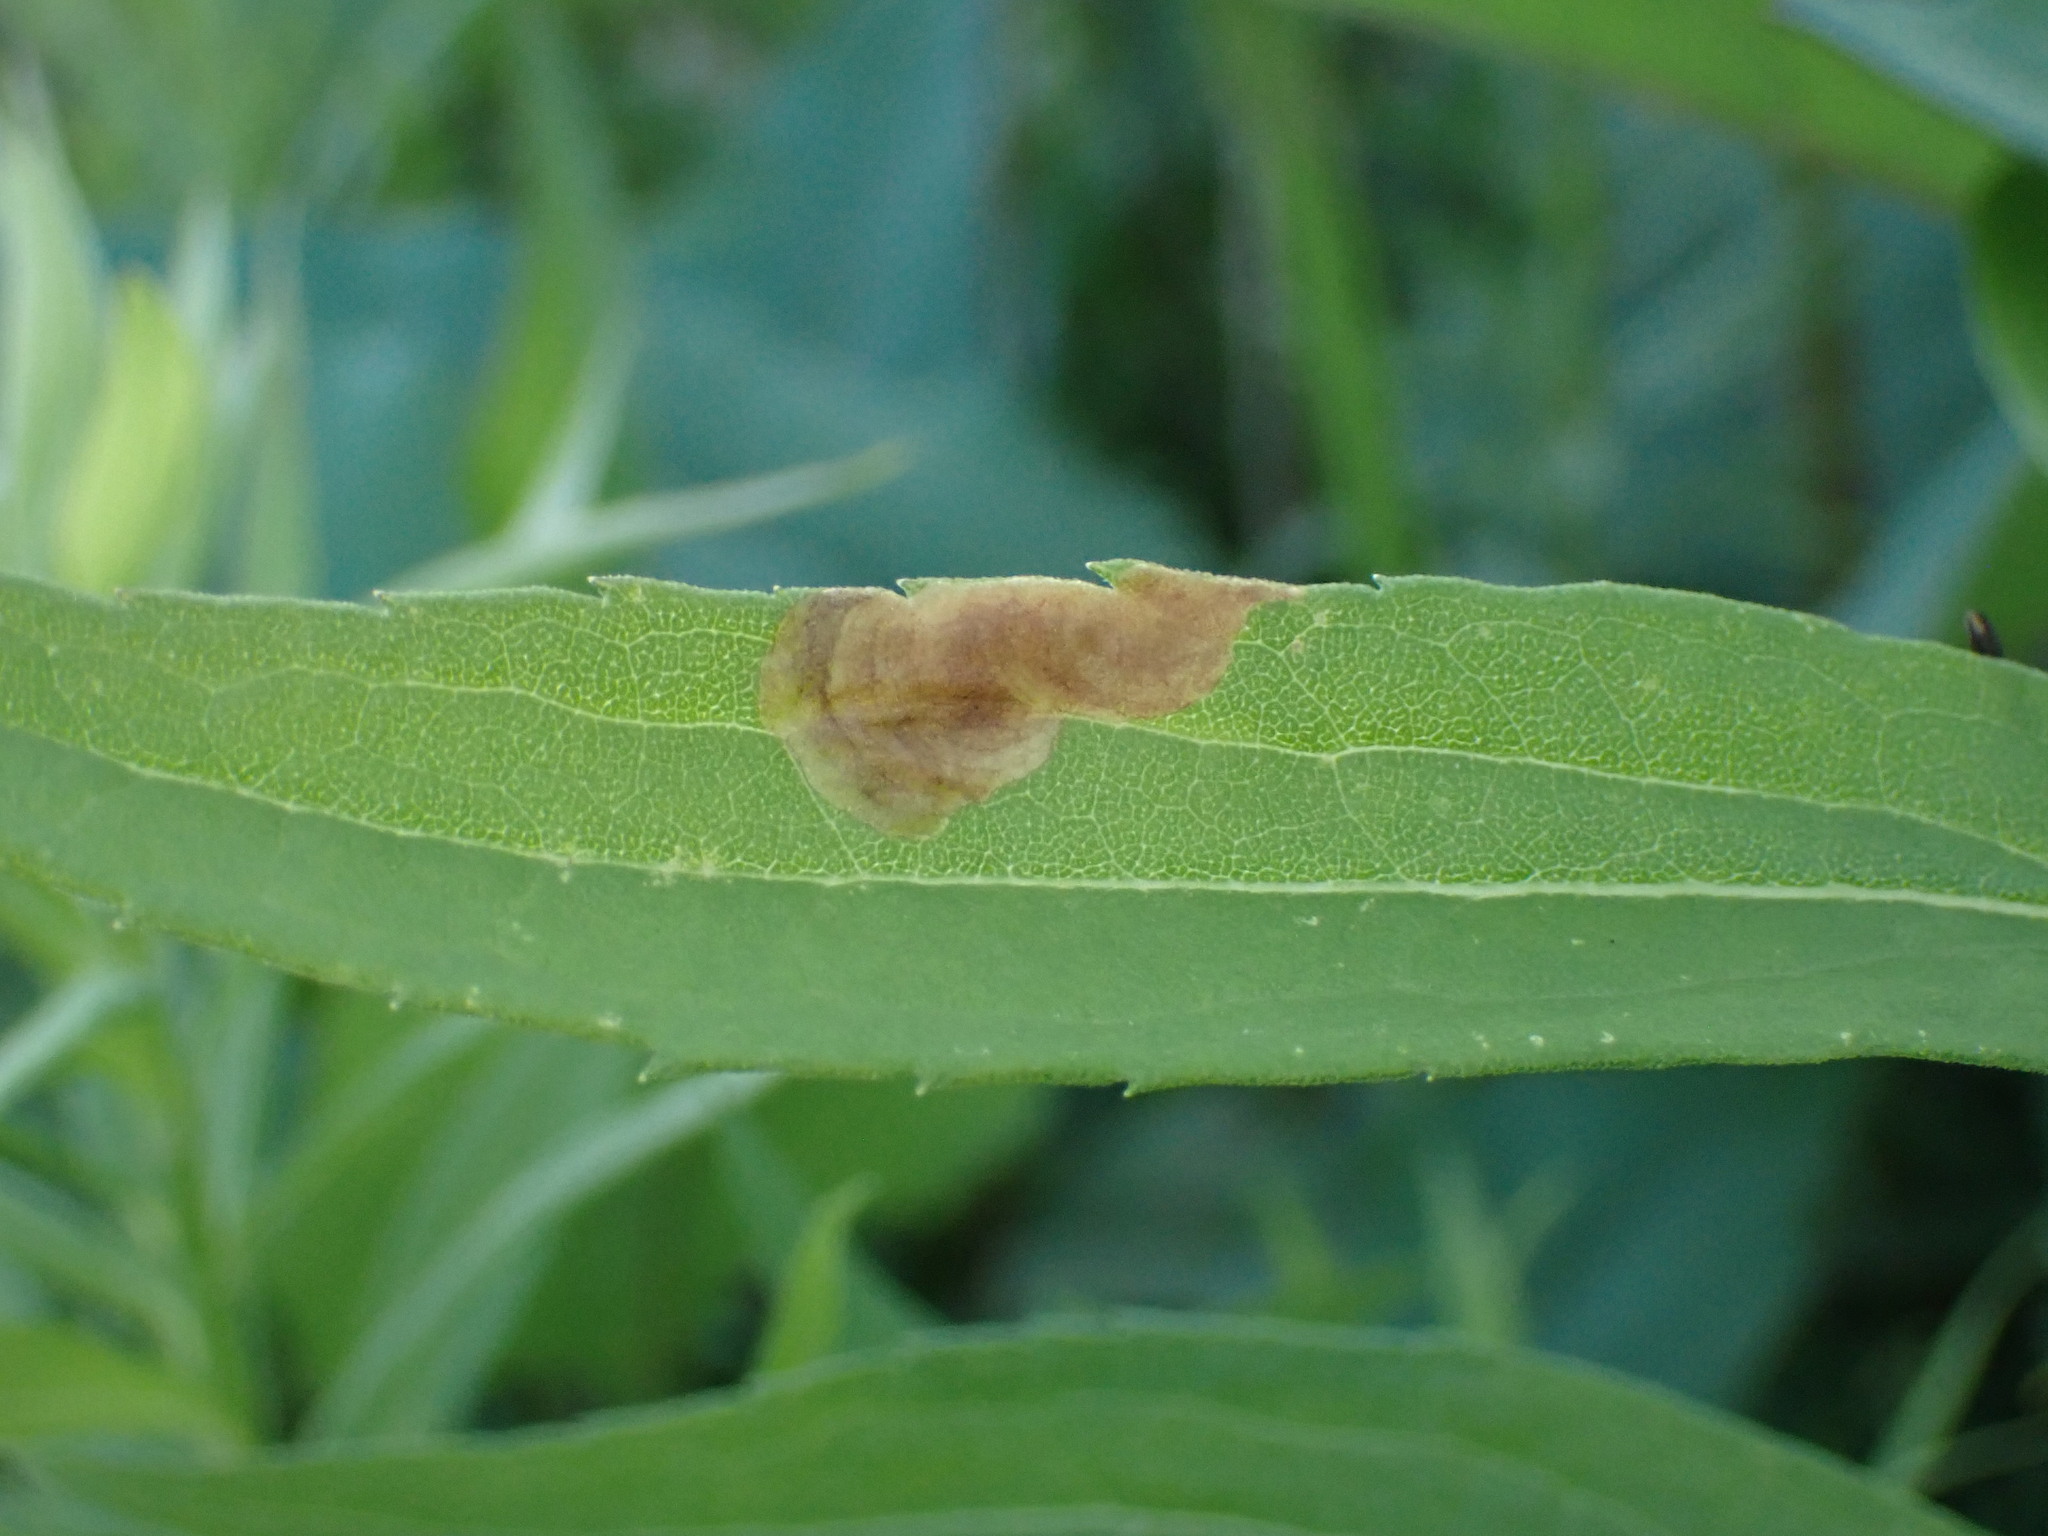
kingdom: Animalia
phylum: Arthropoda
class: Insecta
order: Diptera
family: Agromyzidae
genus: Nemorimyza
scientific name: Nemorimyza posticata
